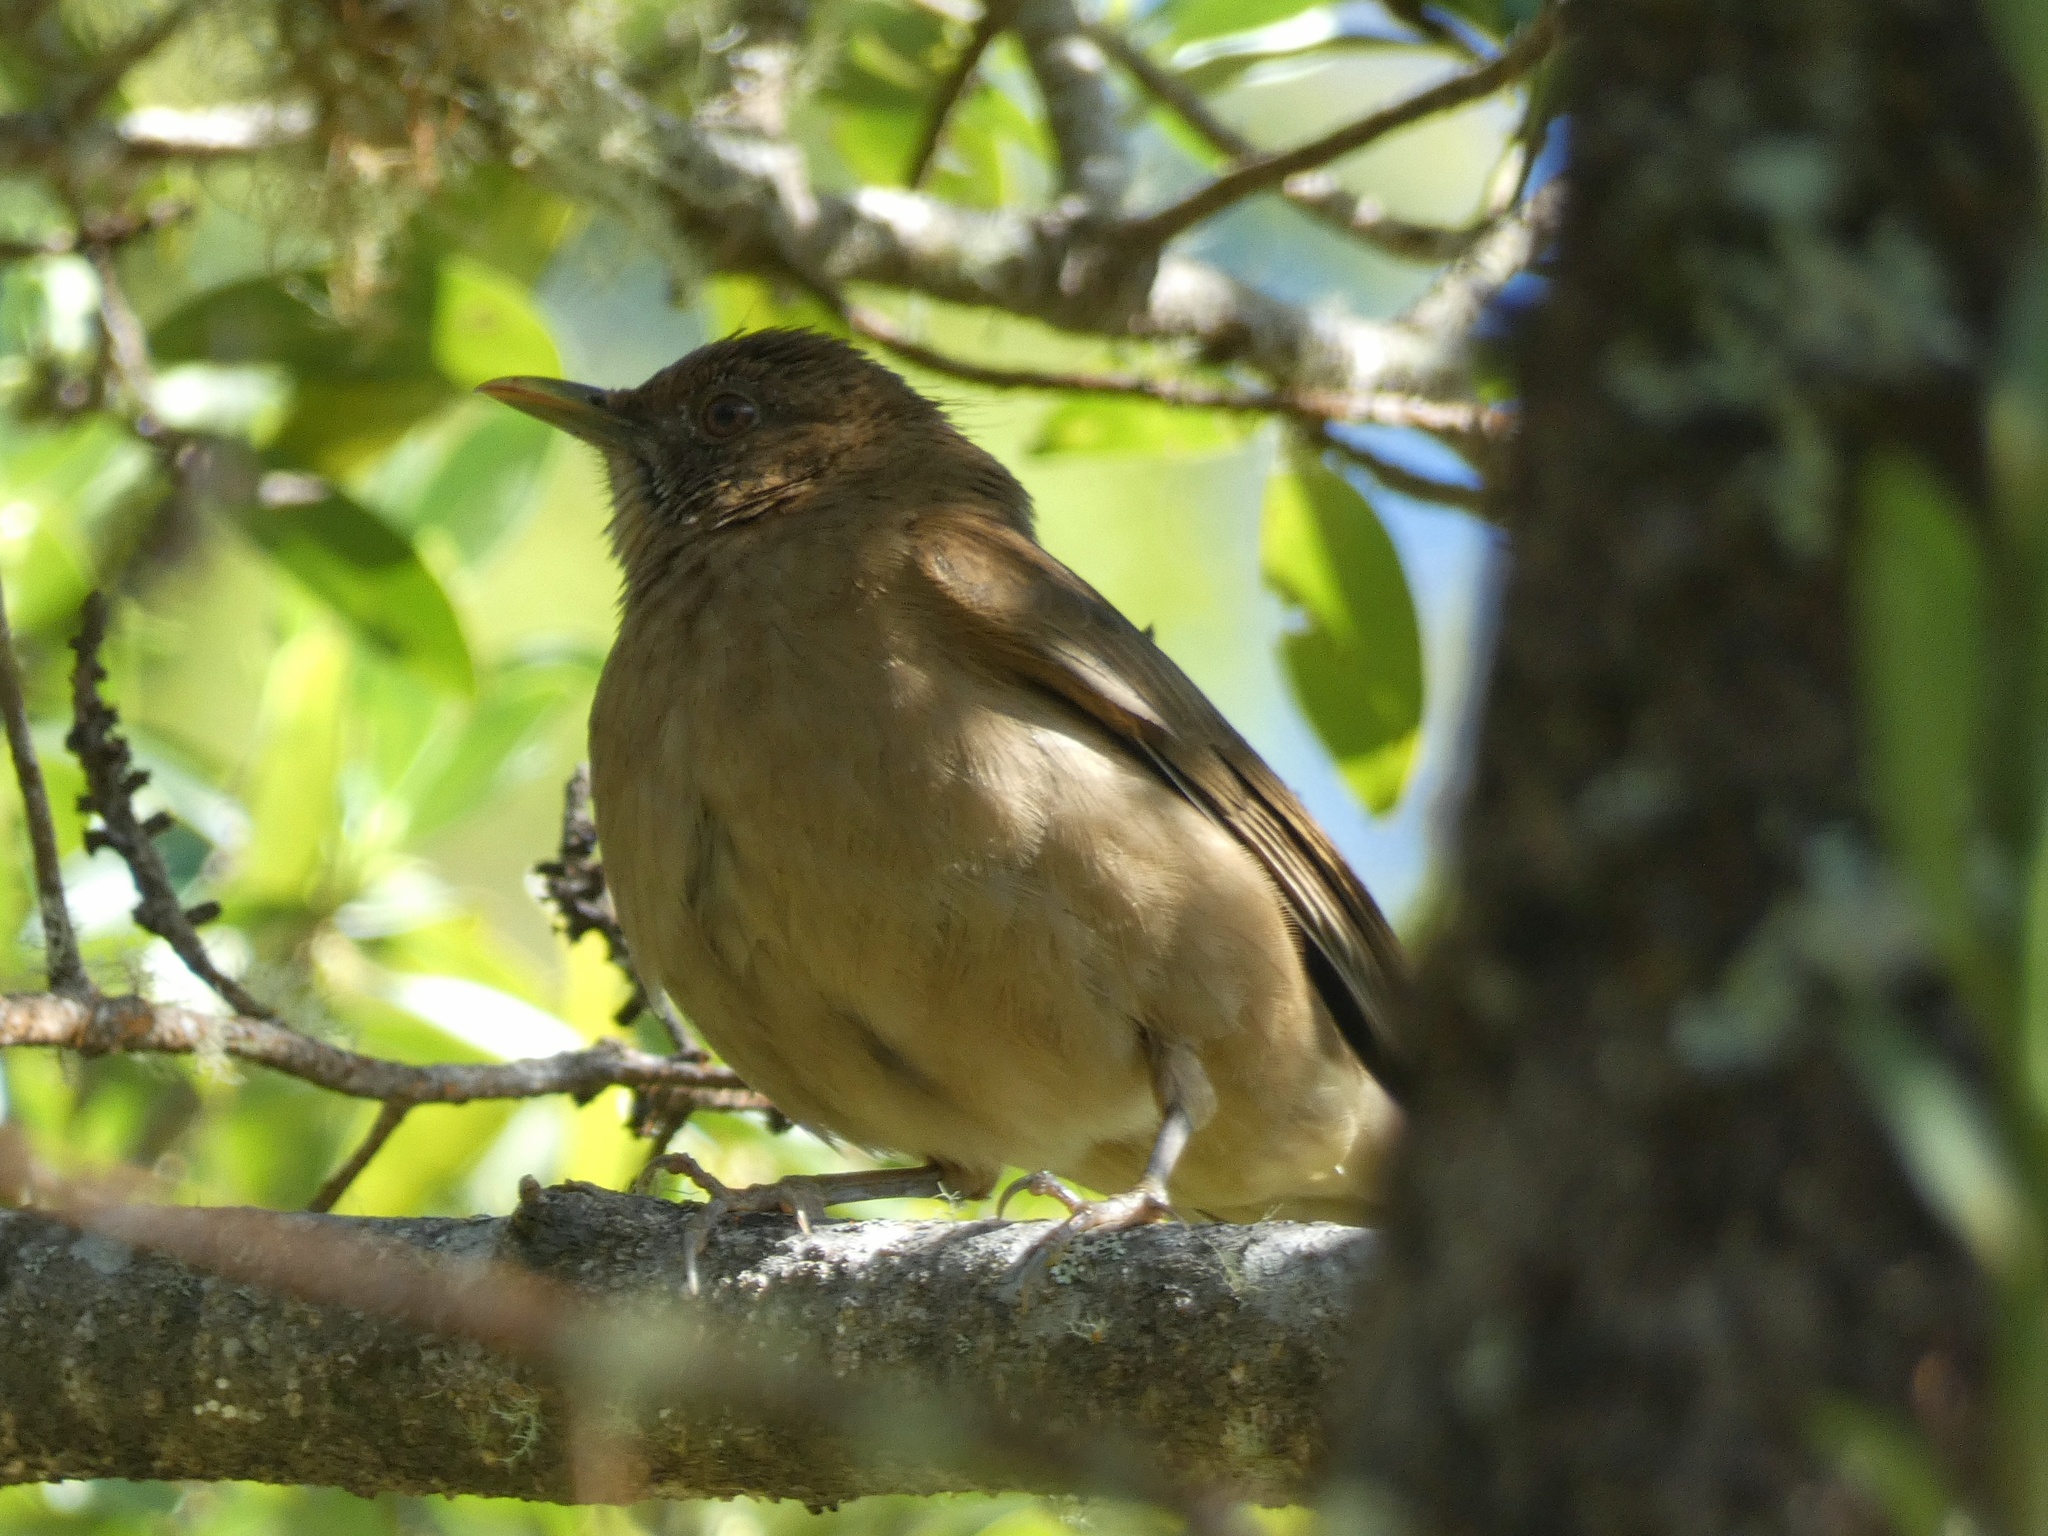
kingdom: Animalia
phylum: Chordata
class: Aves
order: Passeriformes
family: Turdidae
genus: Turdus
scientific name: Turdus grayi
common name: Clay-colored thrush
